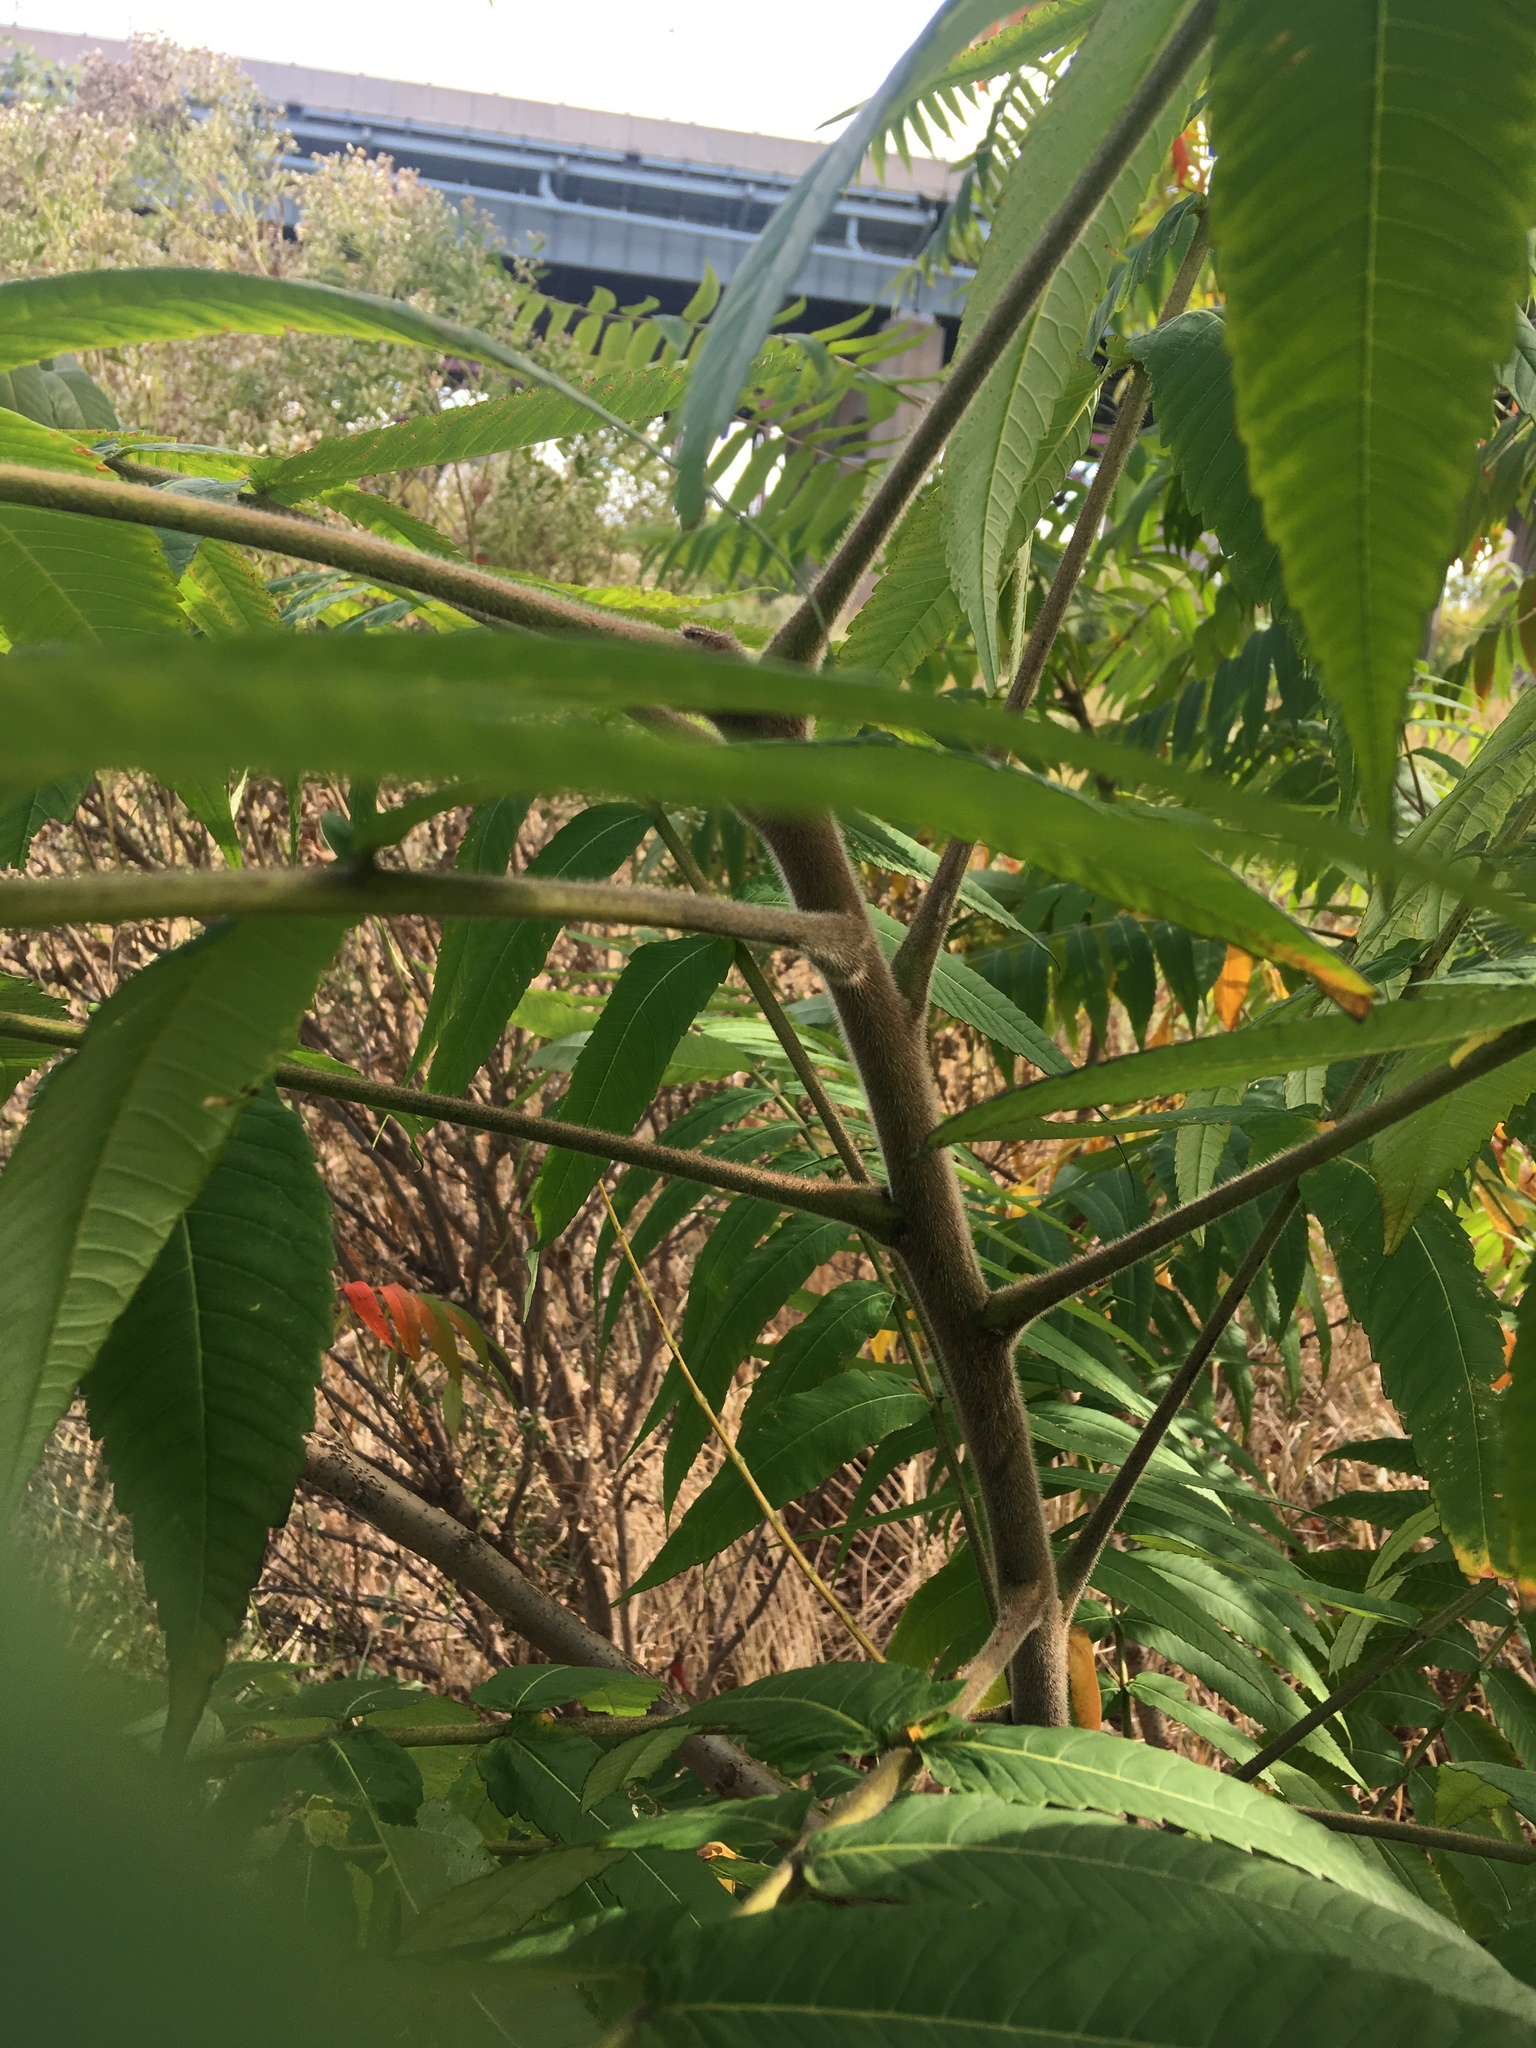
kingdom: Plantae
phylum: Tracheophyta
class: Magnoliopsida
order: Sapindales
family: Anacardiaceae
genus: Rhus
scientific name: Rhus typhina
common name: Staghorn sumac
